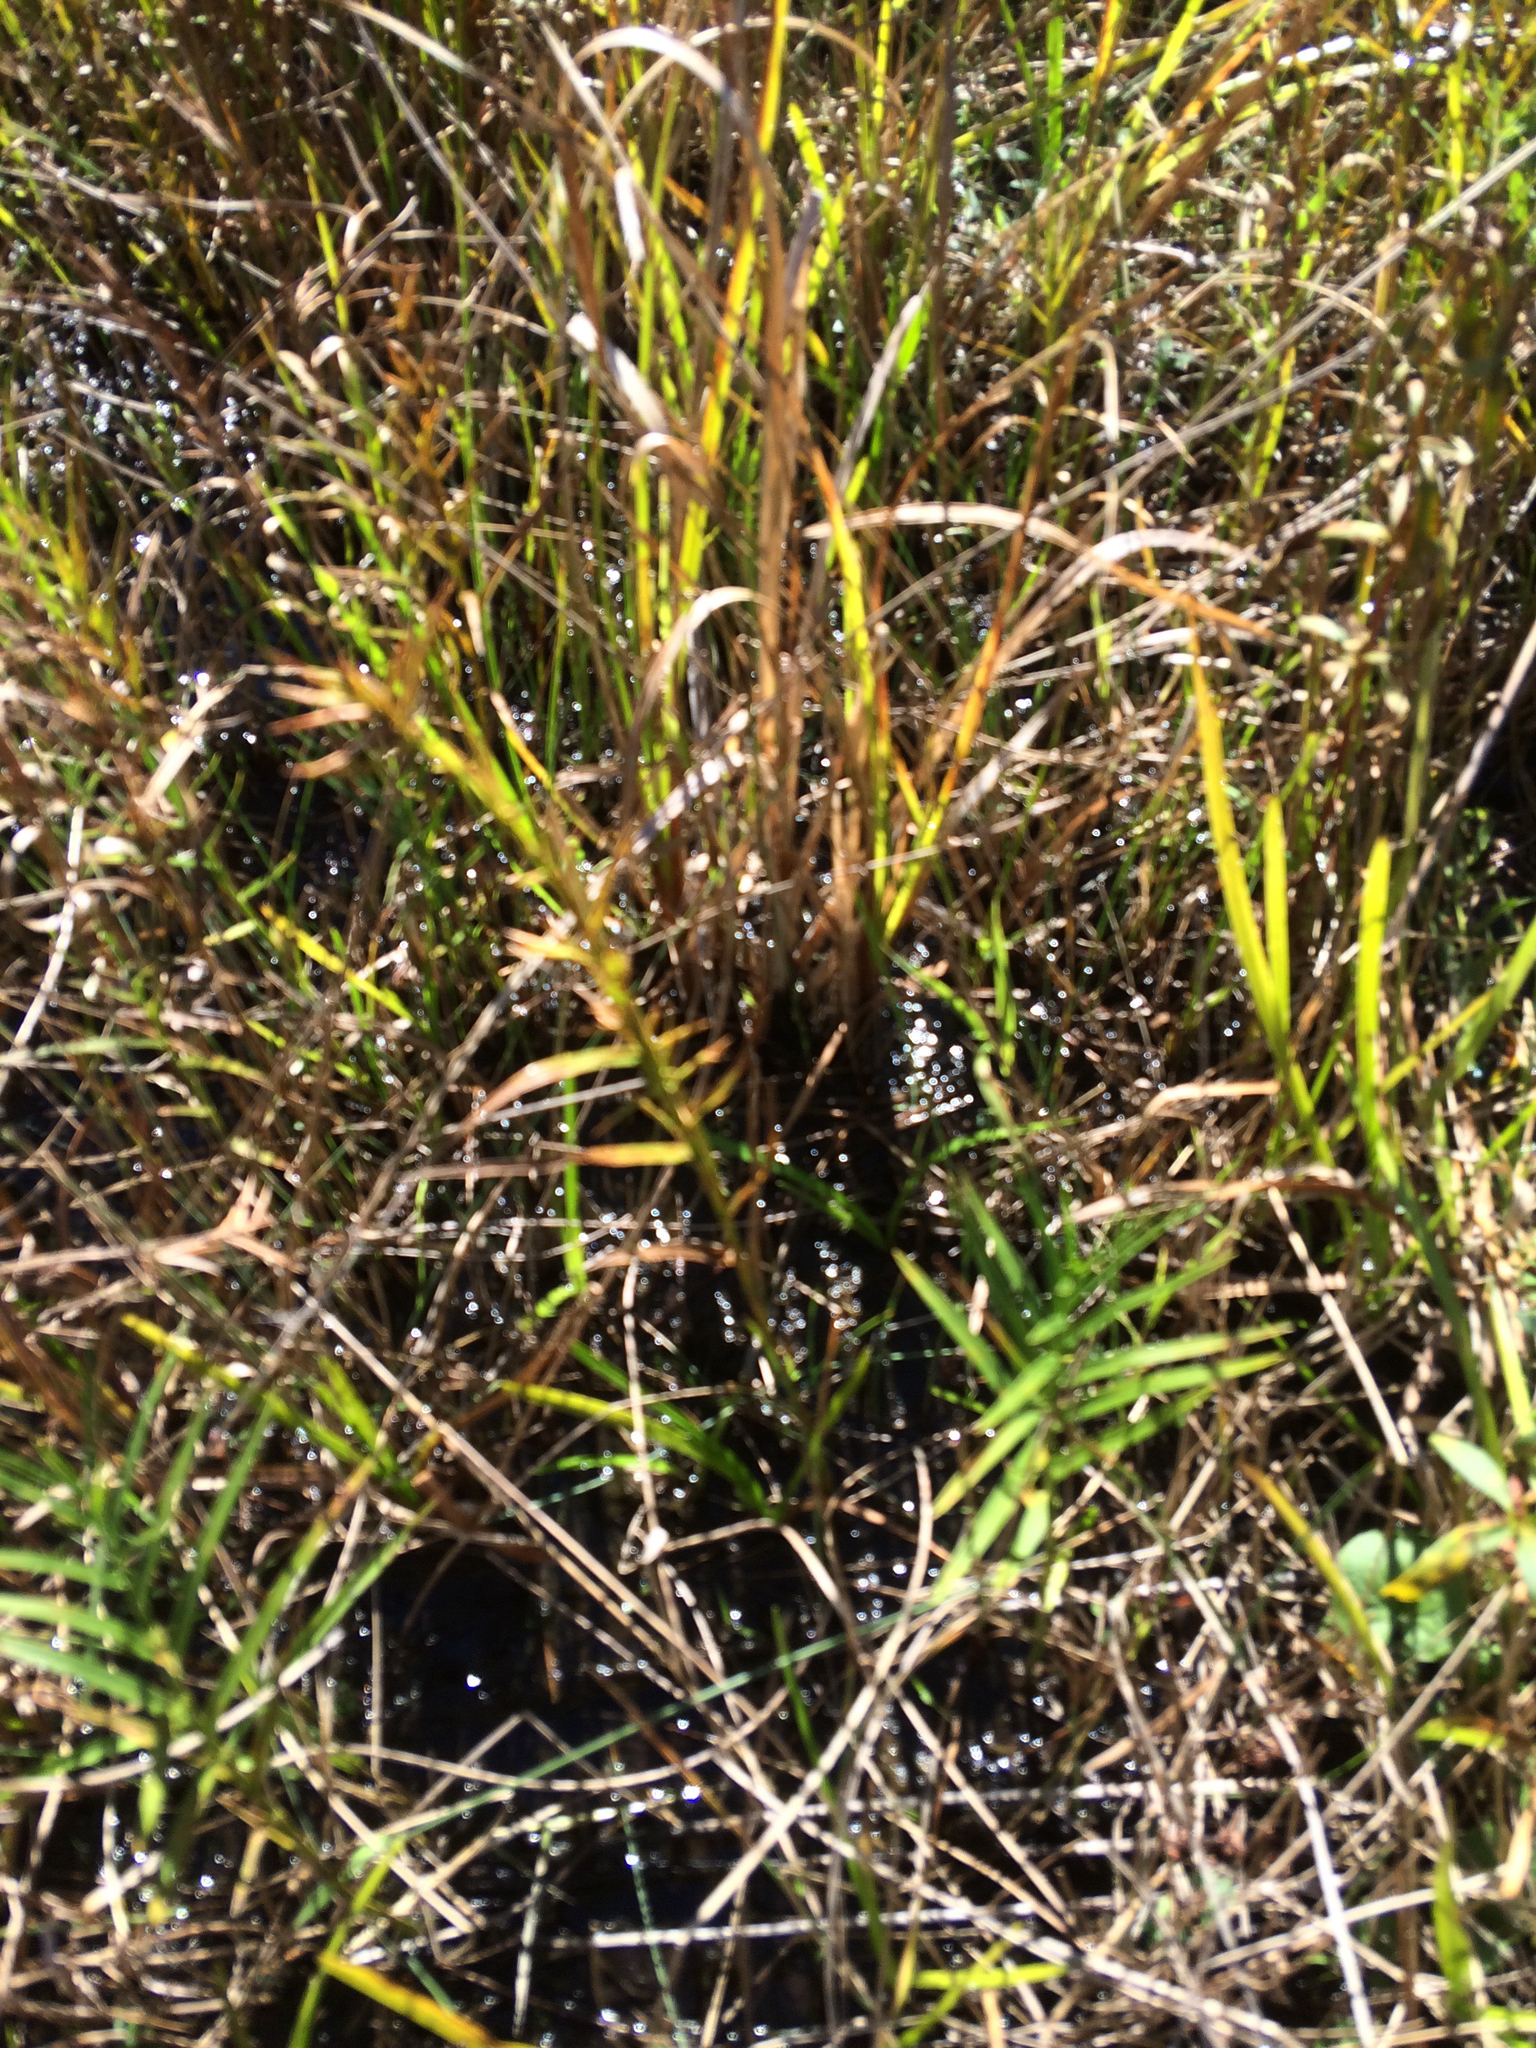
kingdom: Plantae
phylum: Tracheophyta
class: Liliopsida
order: Poales
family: Cyperaceae
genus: Dulichium
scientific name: Dulichium arundinaceum
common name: Three-way sedge
